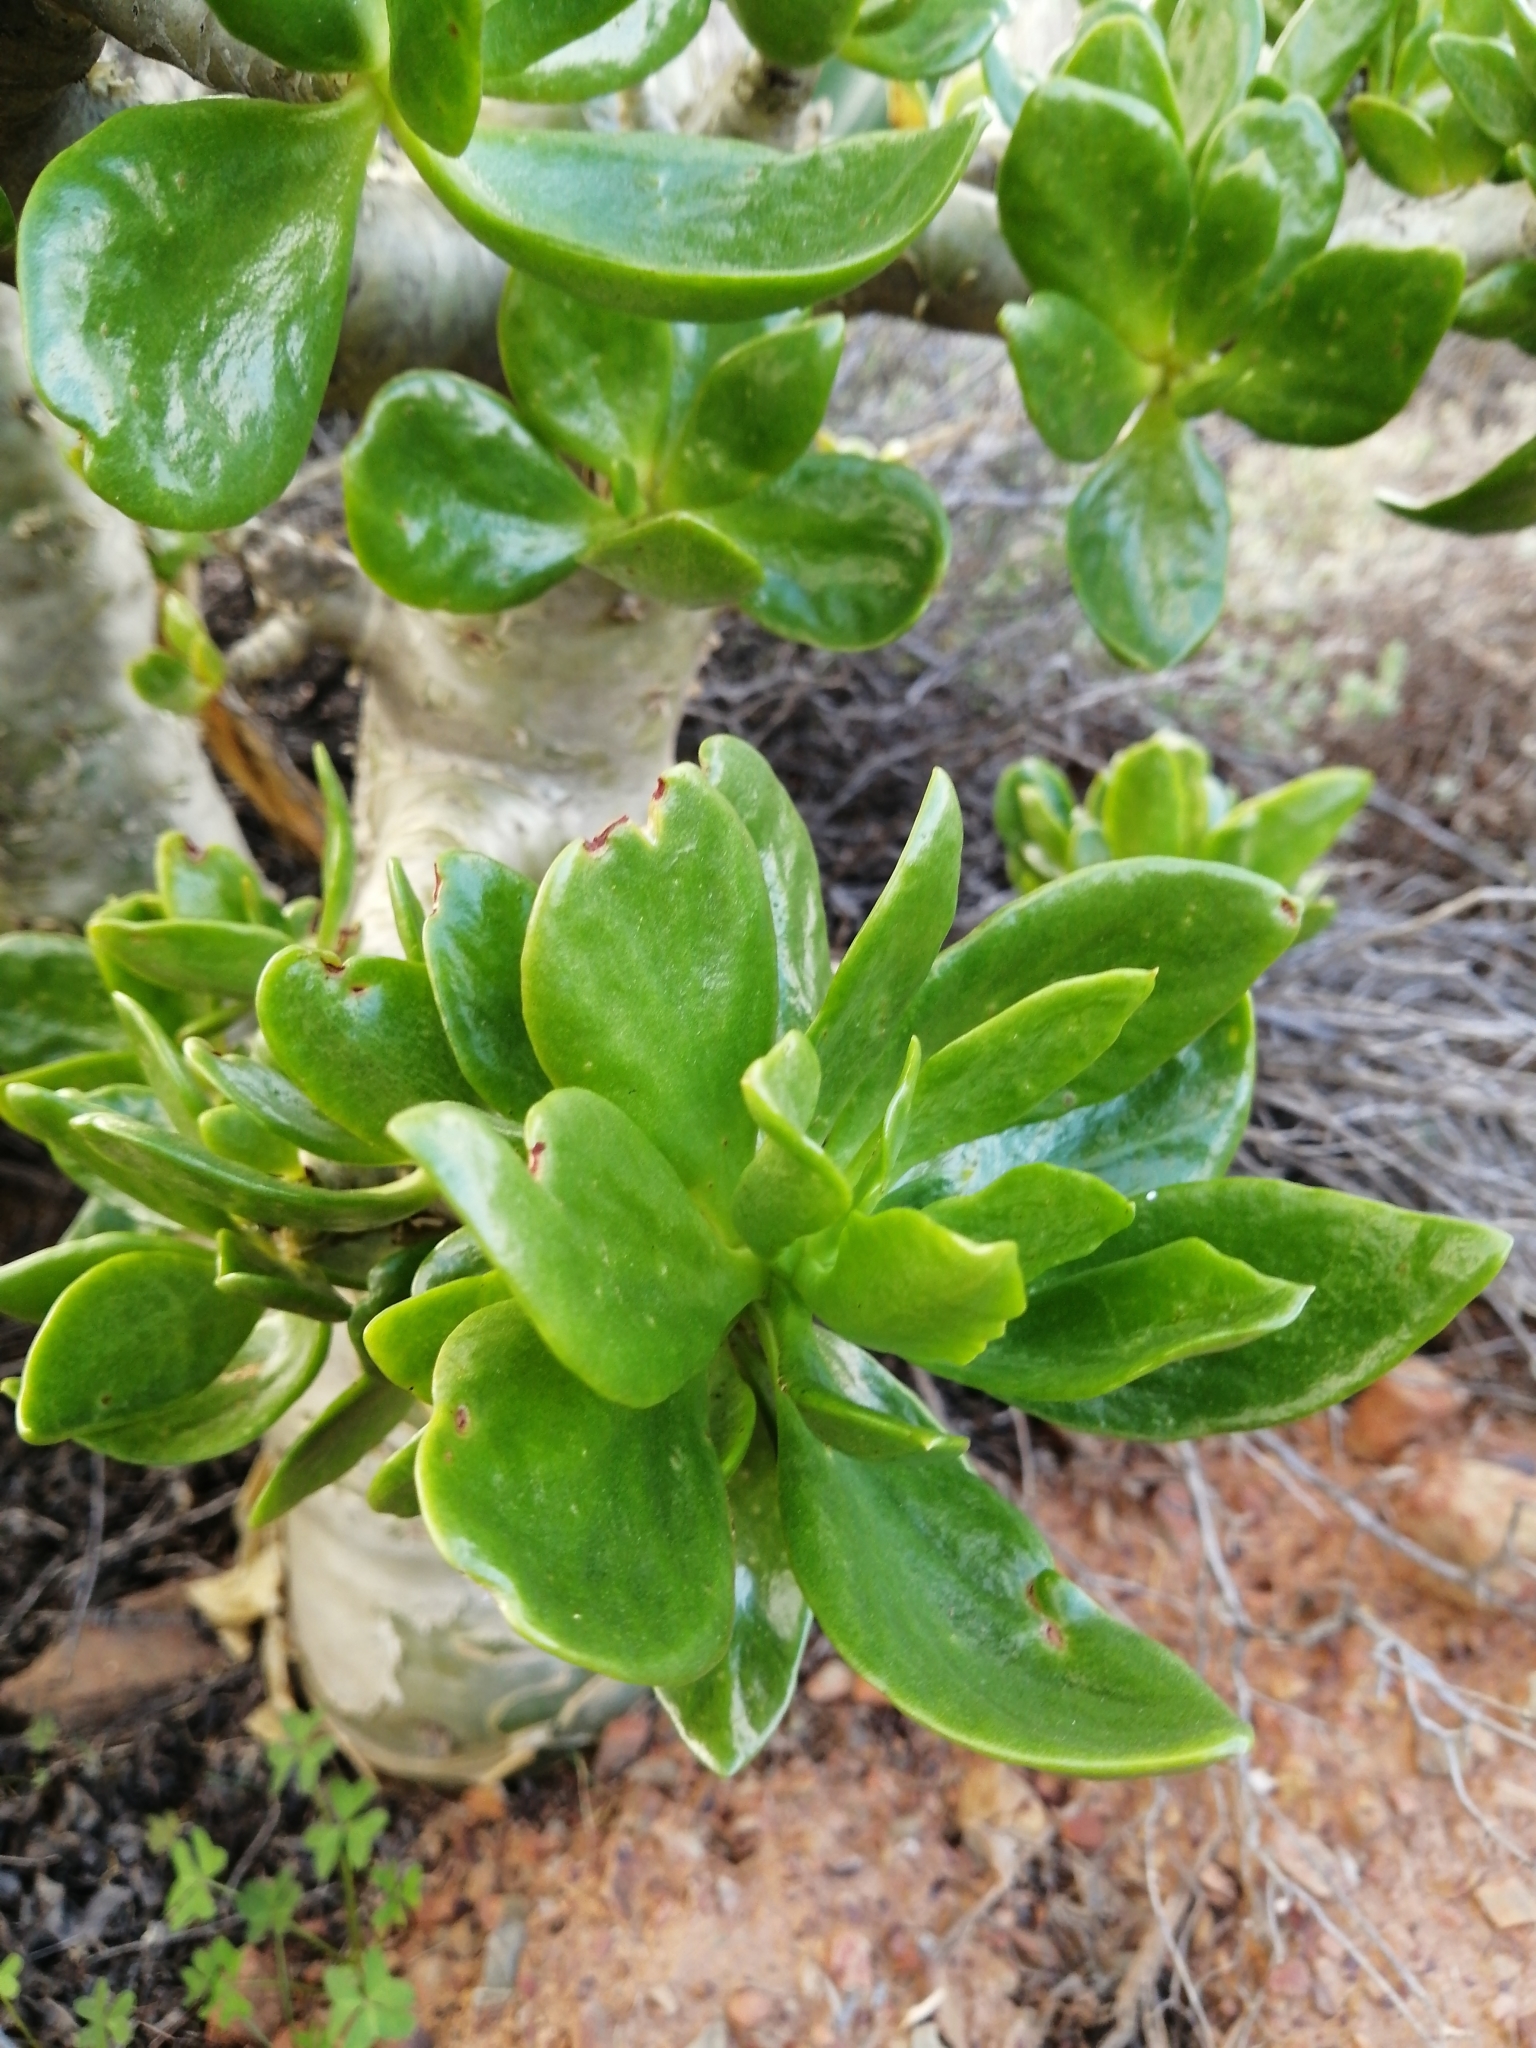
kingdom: Plantae
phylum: Tracheophyta
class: Magnoliopsida
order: Saxifragales
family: Crassulaceae
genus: Tylecodon
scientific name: Tylecodon paniculatus
